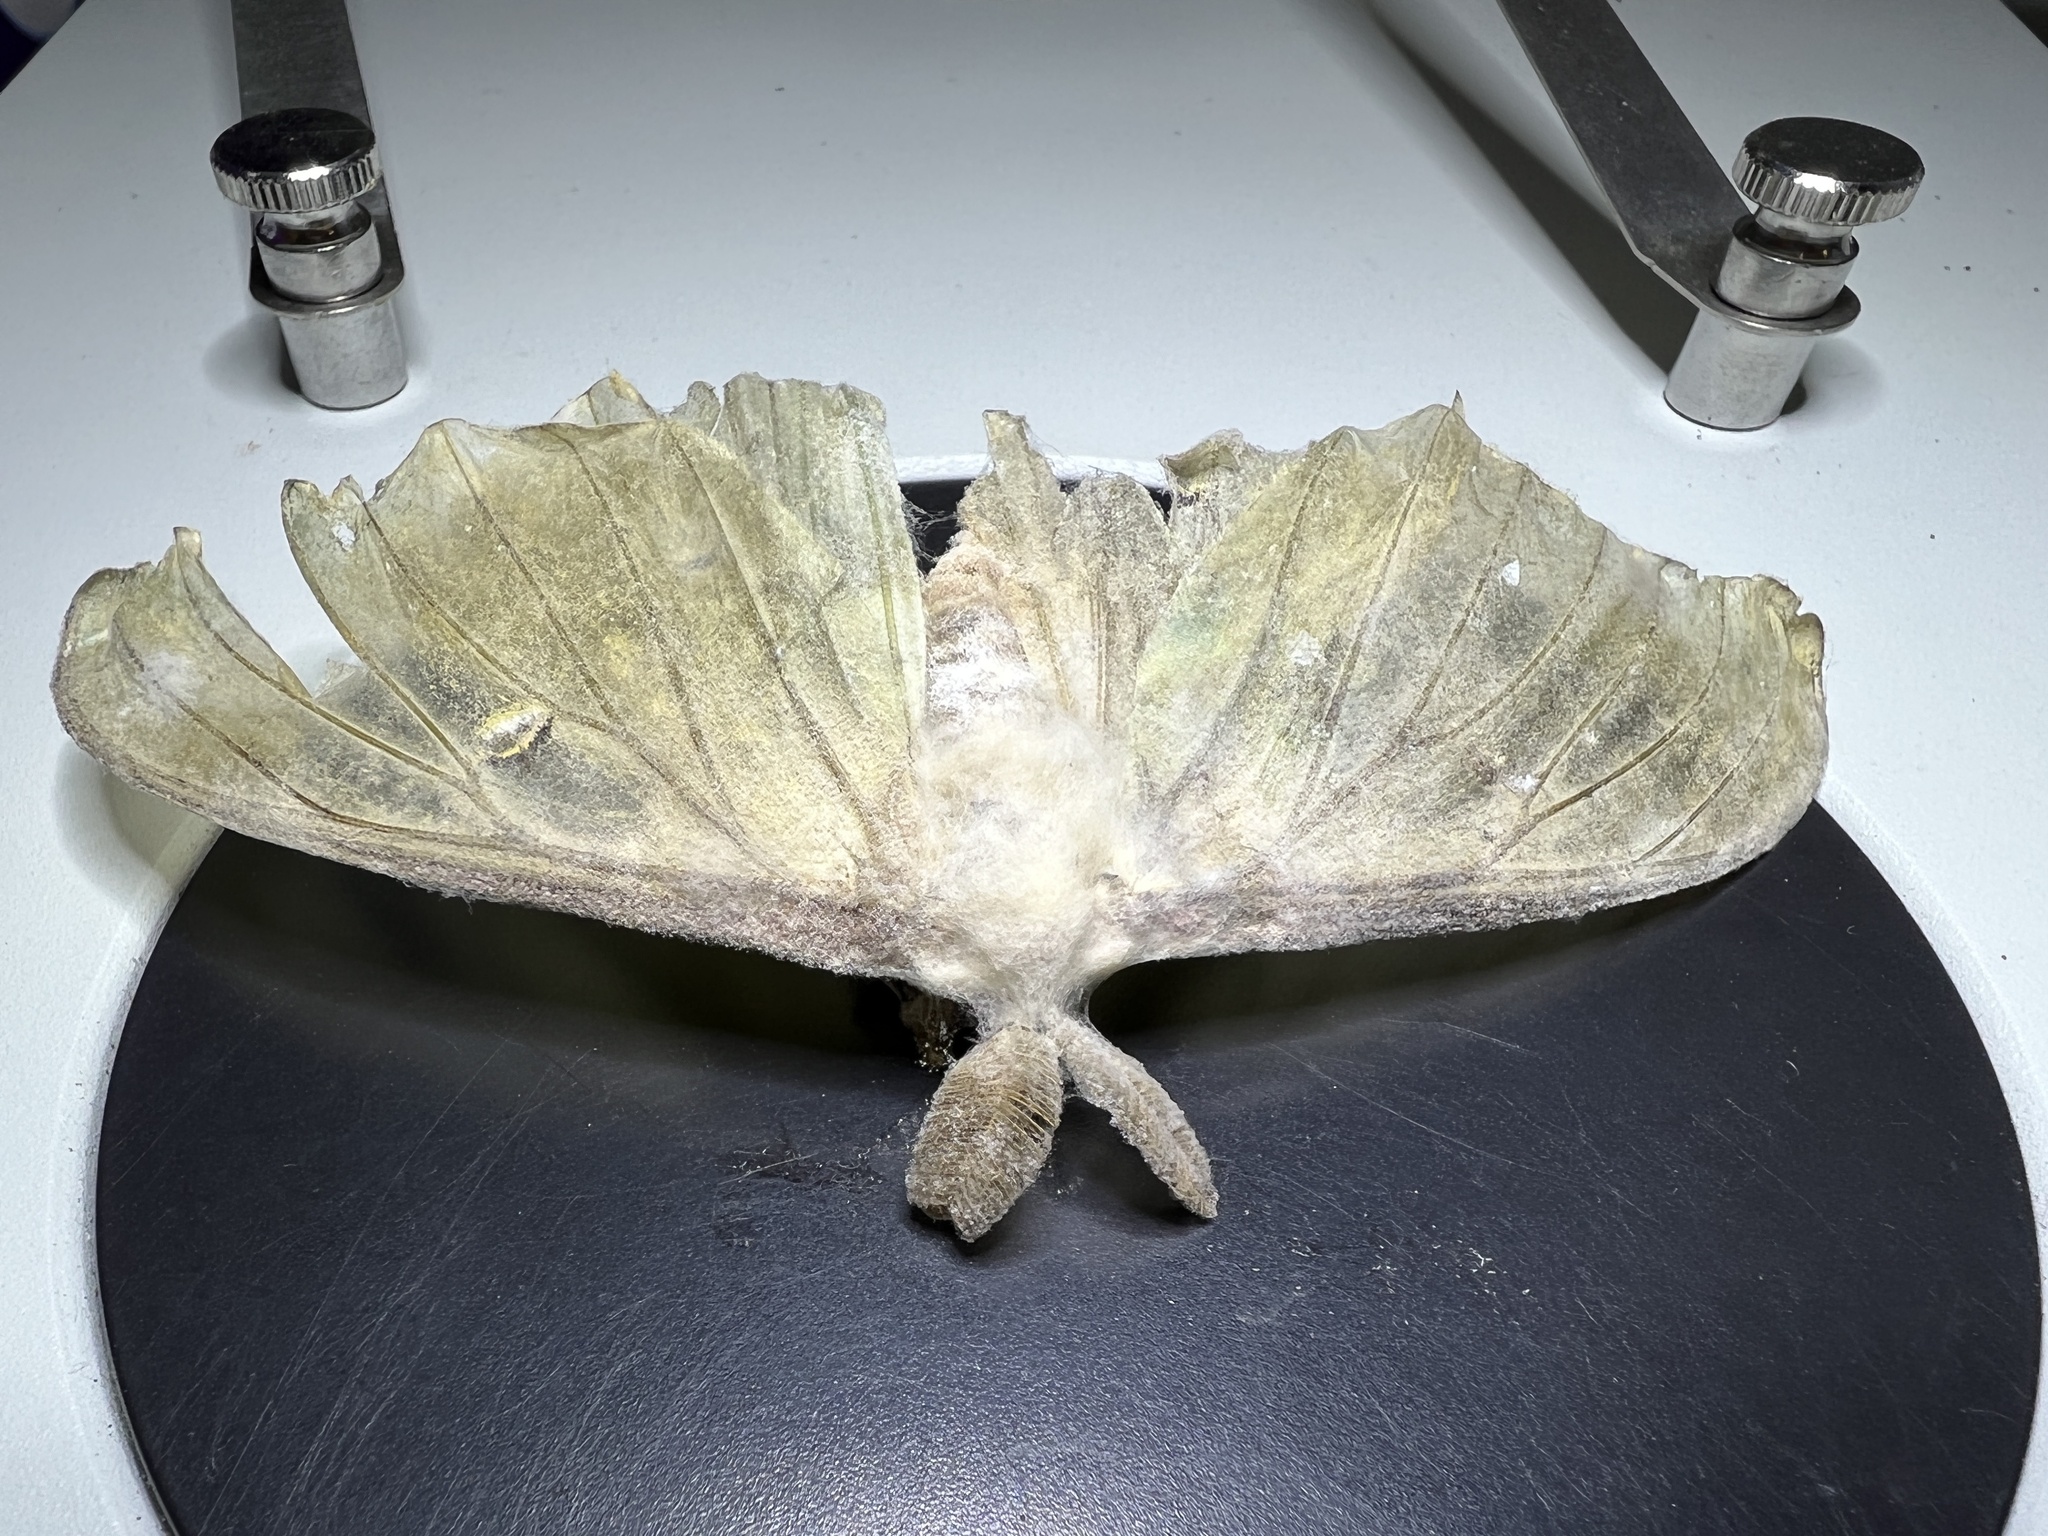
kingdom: Fungi
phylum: Ascomycota
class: Sordariomycetes
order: Hypocreales
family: Cordycipitaceae
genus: Beauveria
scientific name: Beauveria bassiana
